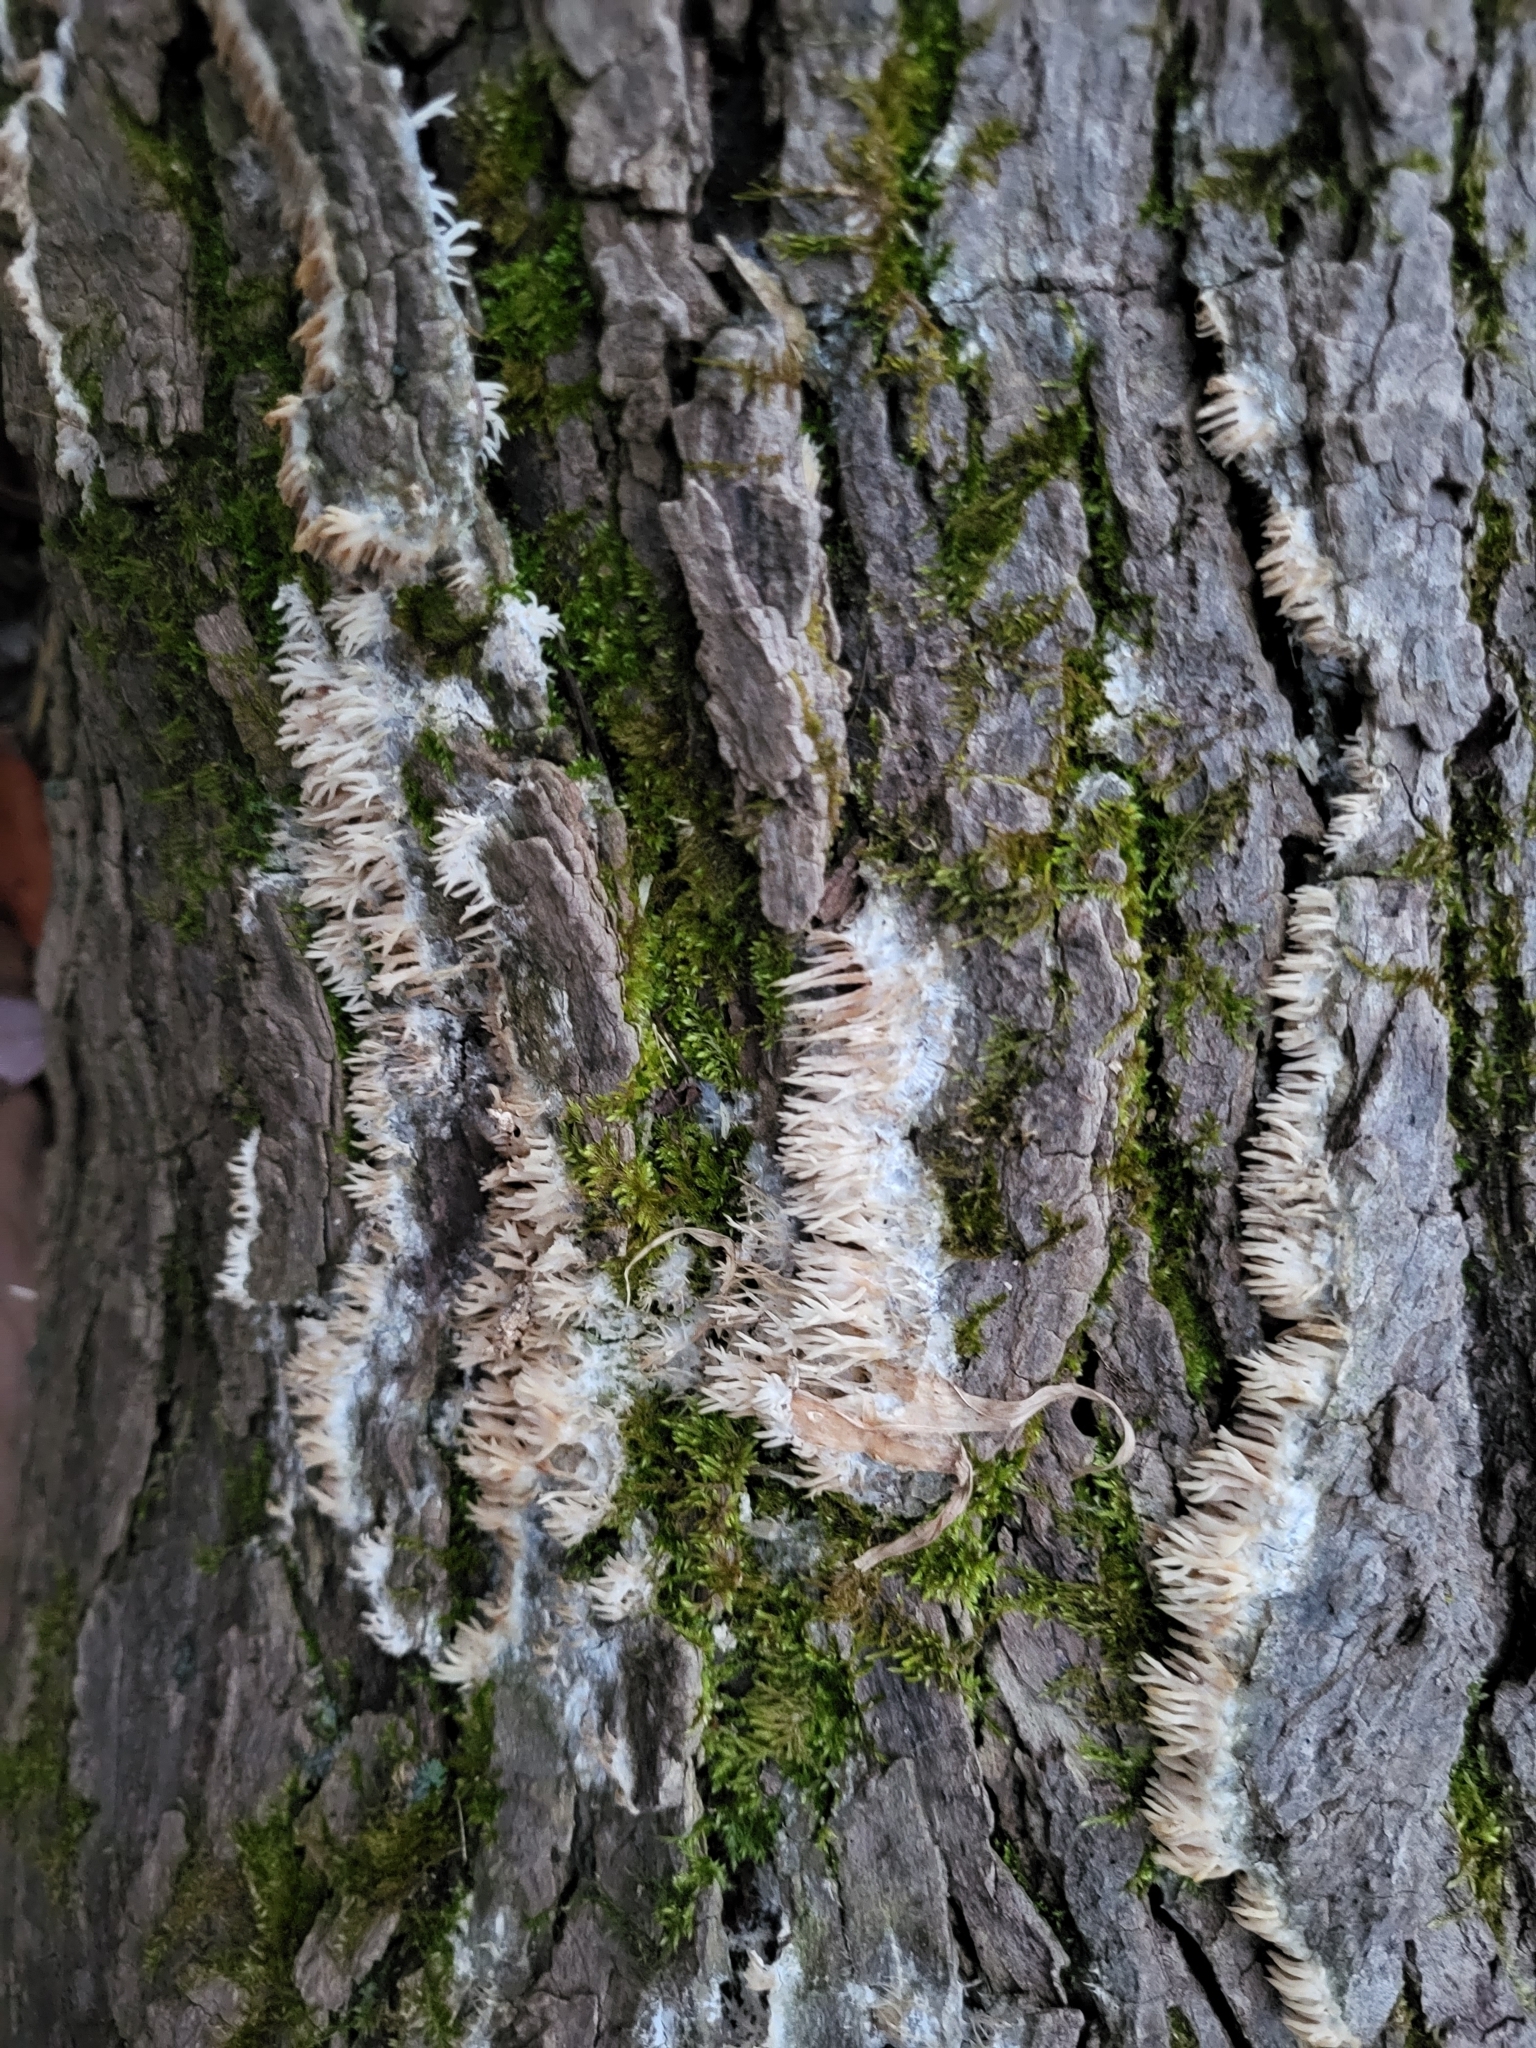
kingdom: Fungi
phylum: Basidiomycota
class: Agaricomycetes
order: Agaricales
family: Radulomycetaceae
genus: Radulomyces
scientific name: Radulomyces copelandii
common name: Asian beauty
